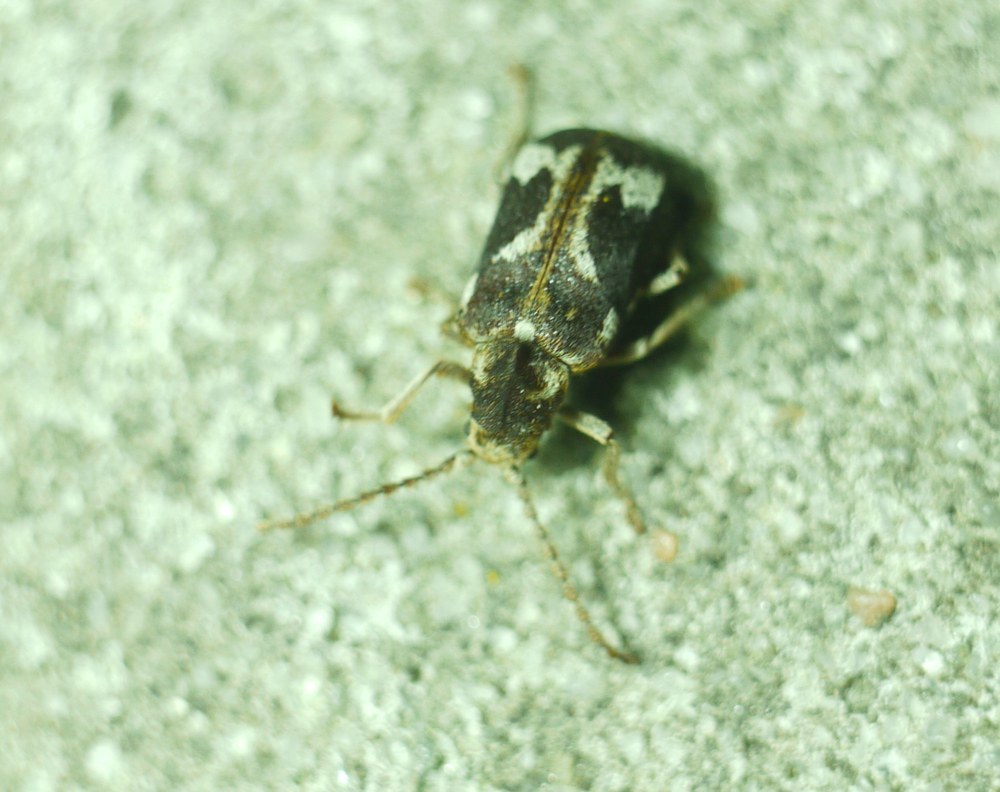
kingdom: Animalia
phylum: Arthropoda
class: Insecta
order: Coleoptera
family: Anobiidae
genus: Ptinomorphus
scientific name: Ptinomorphus imperialis
